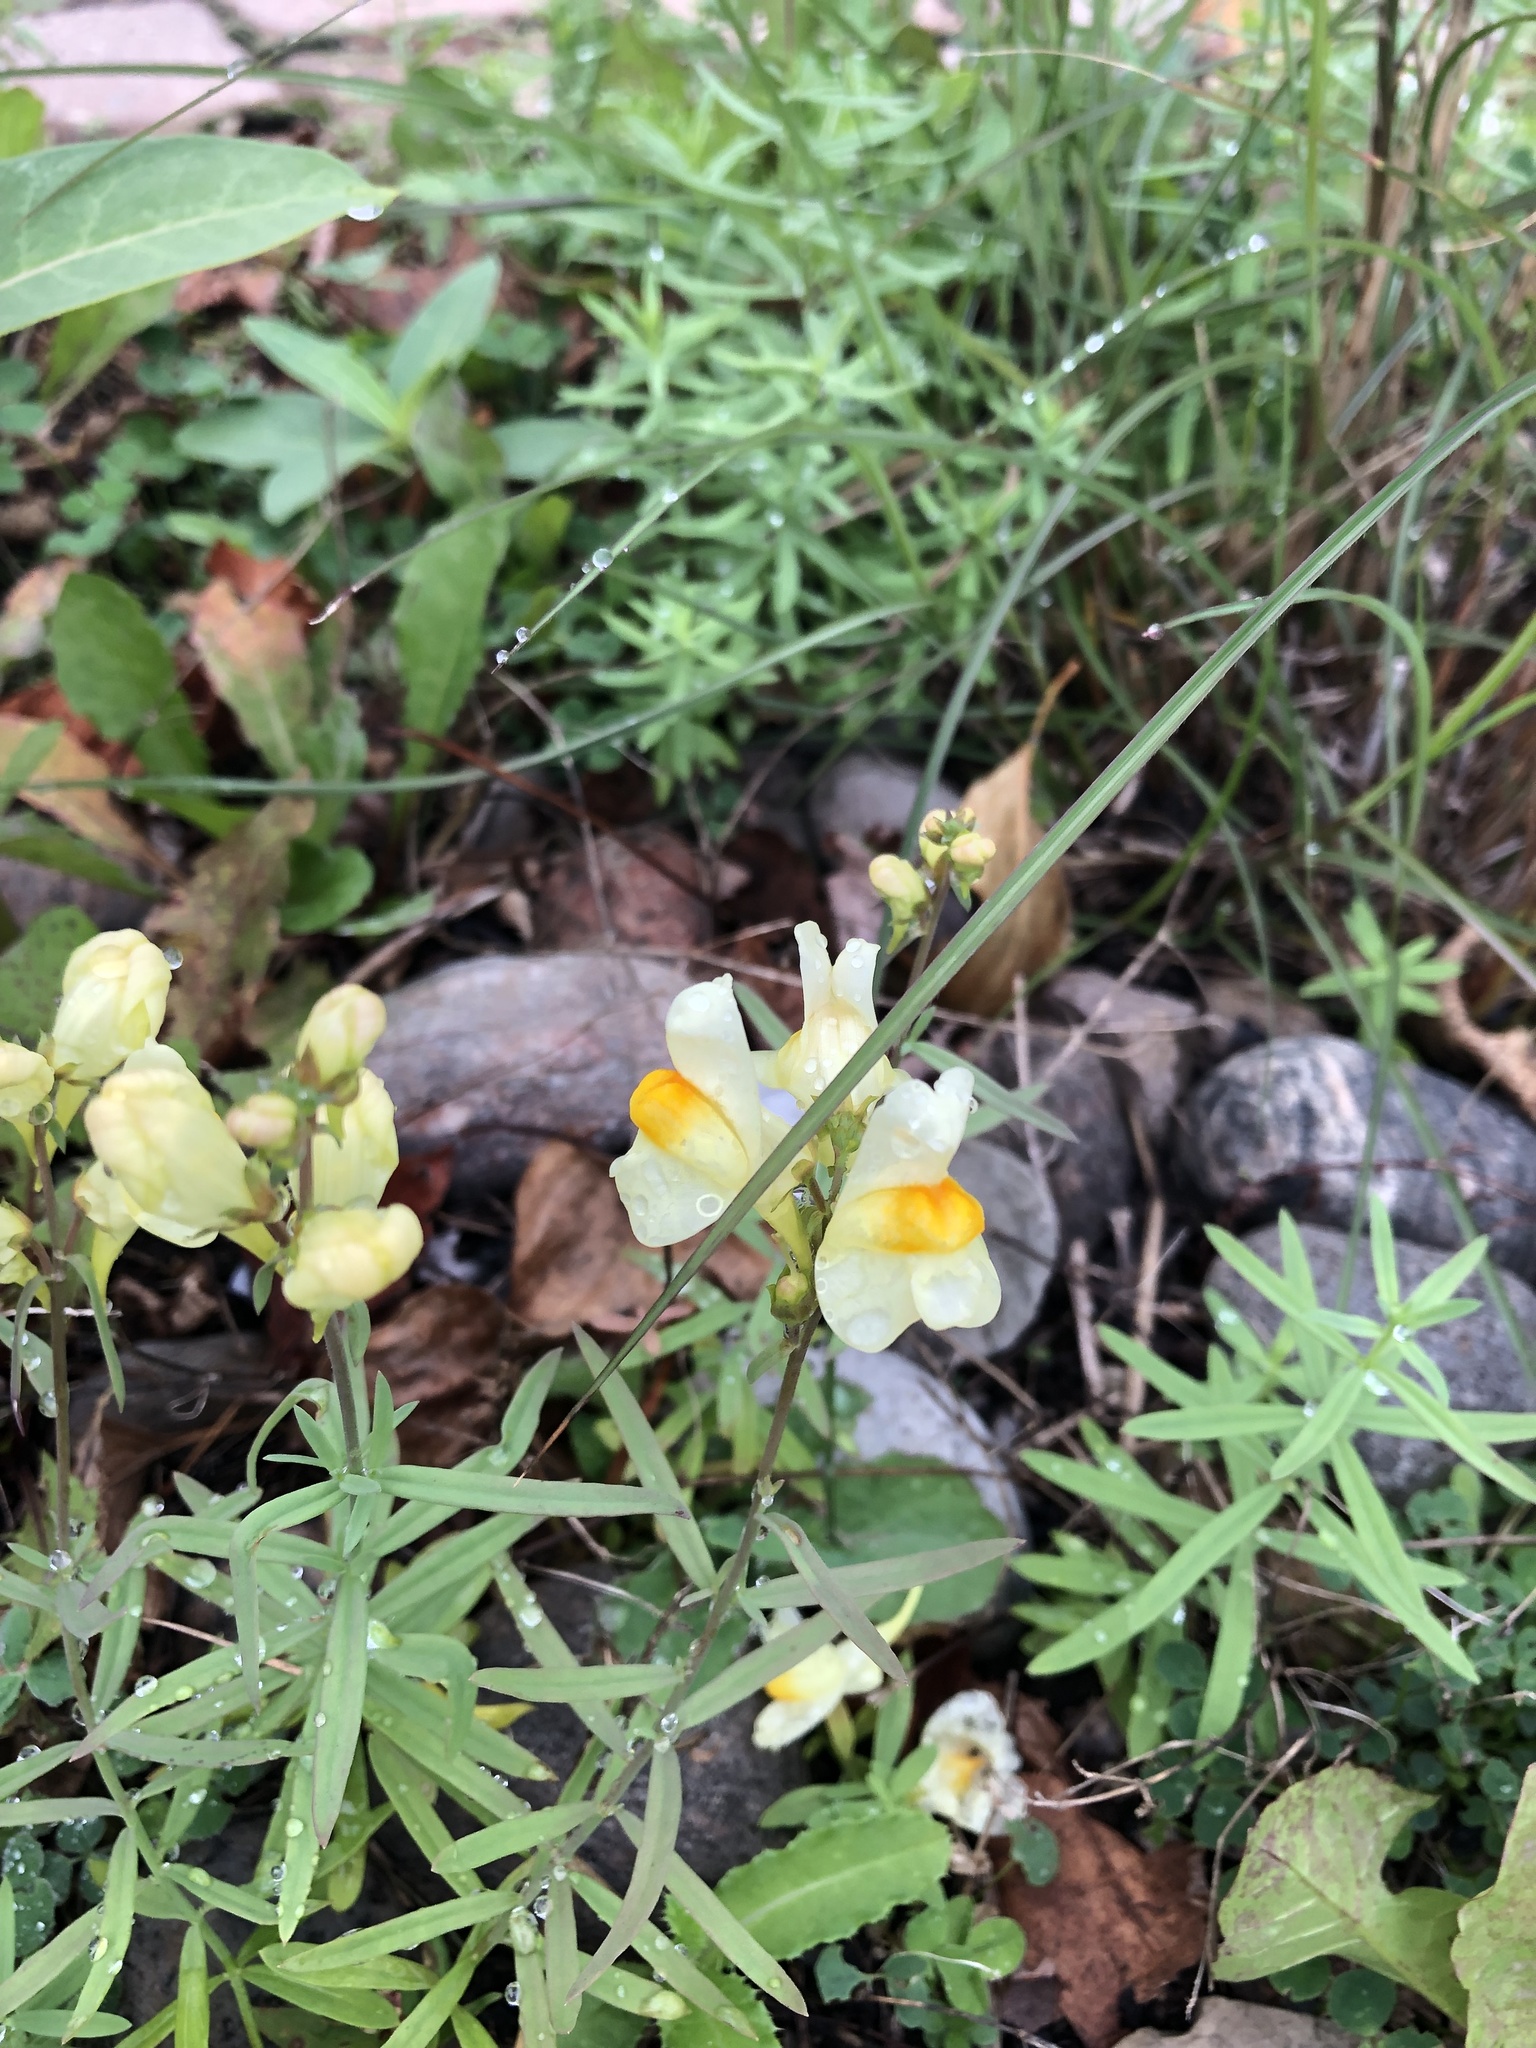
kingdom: Plantae
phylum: Tracheophyta
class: Magnoliopsida
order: Lamiales
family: Plantaginaceae
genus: Linaria
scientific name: Linaria vulgaris
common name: Butter and eggs
